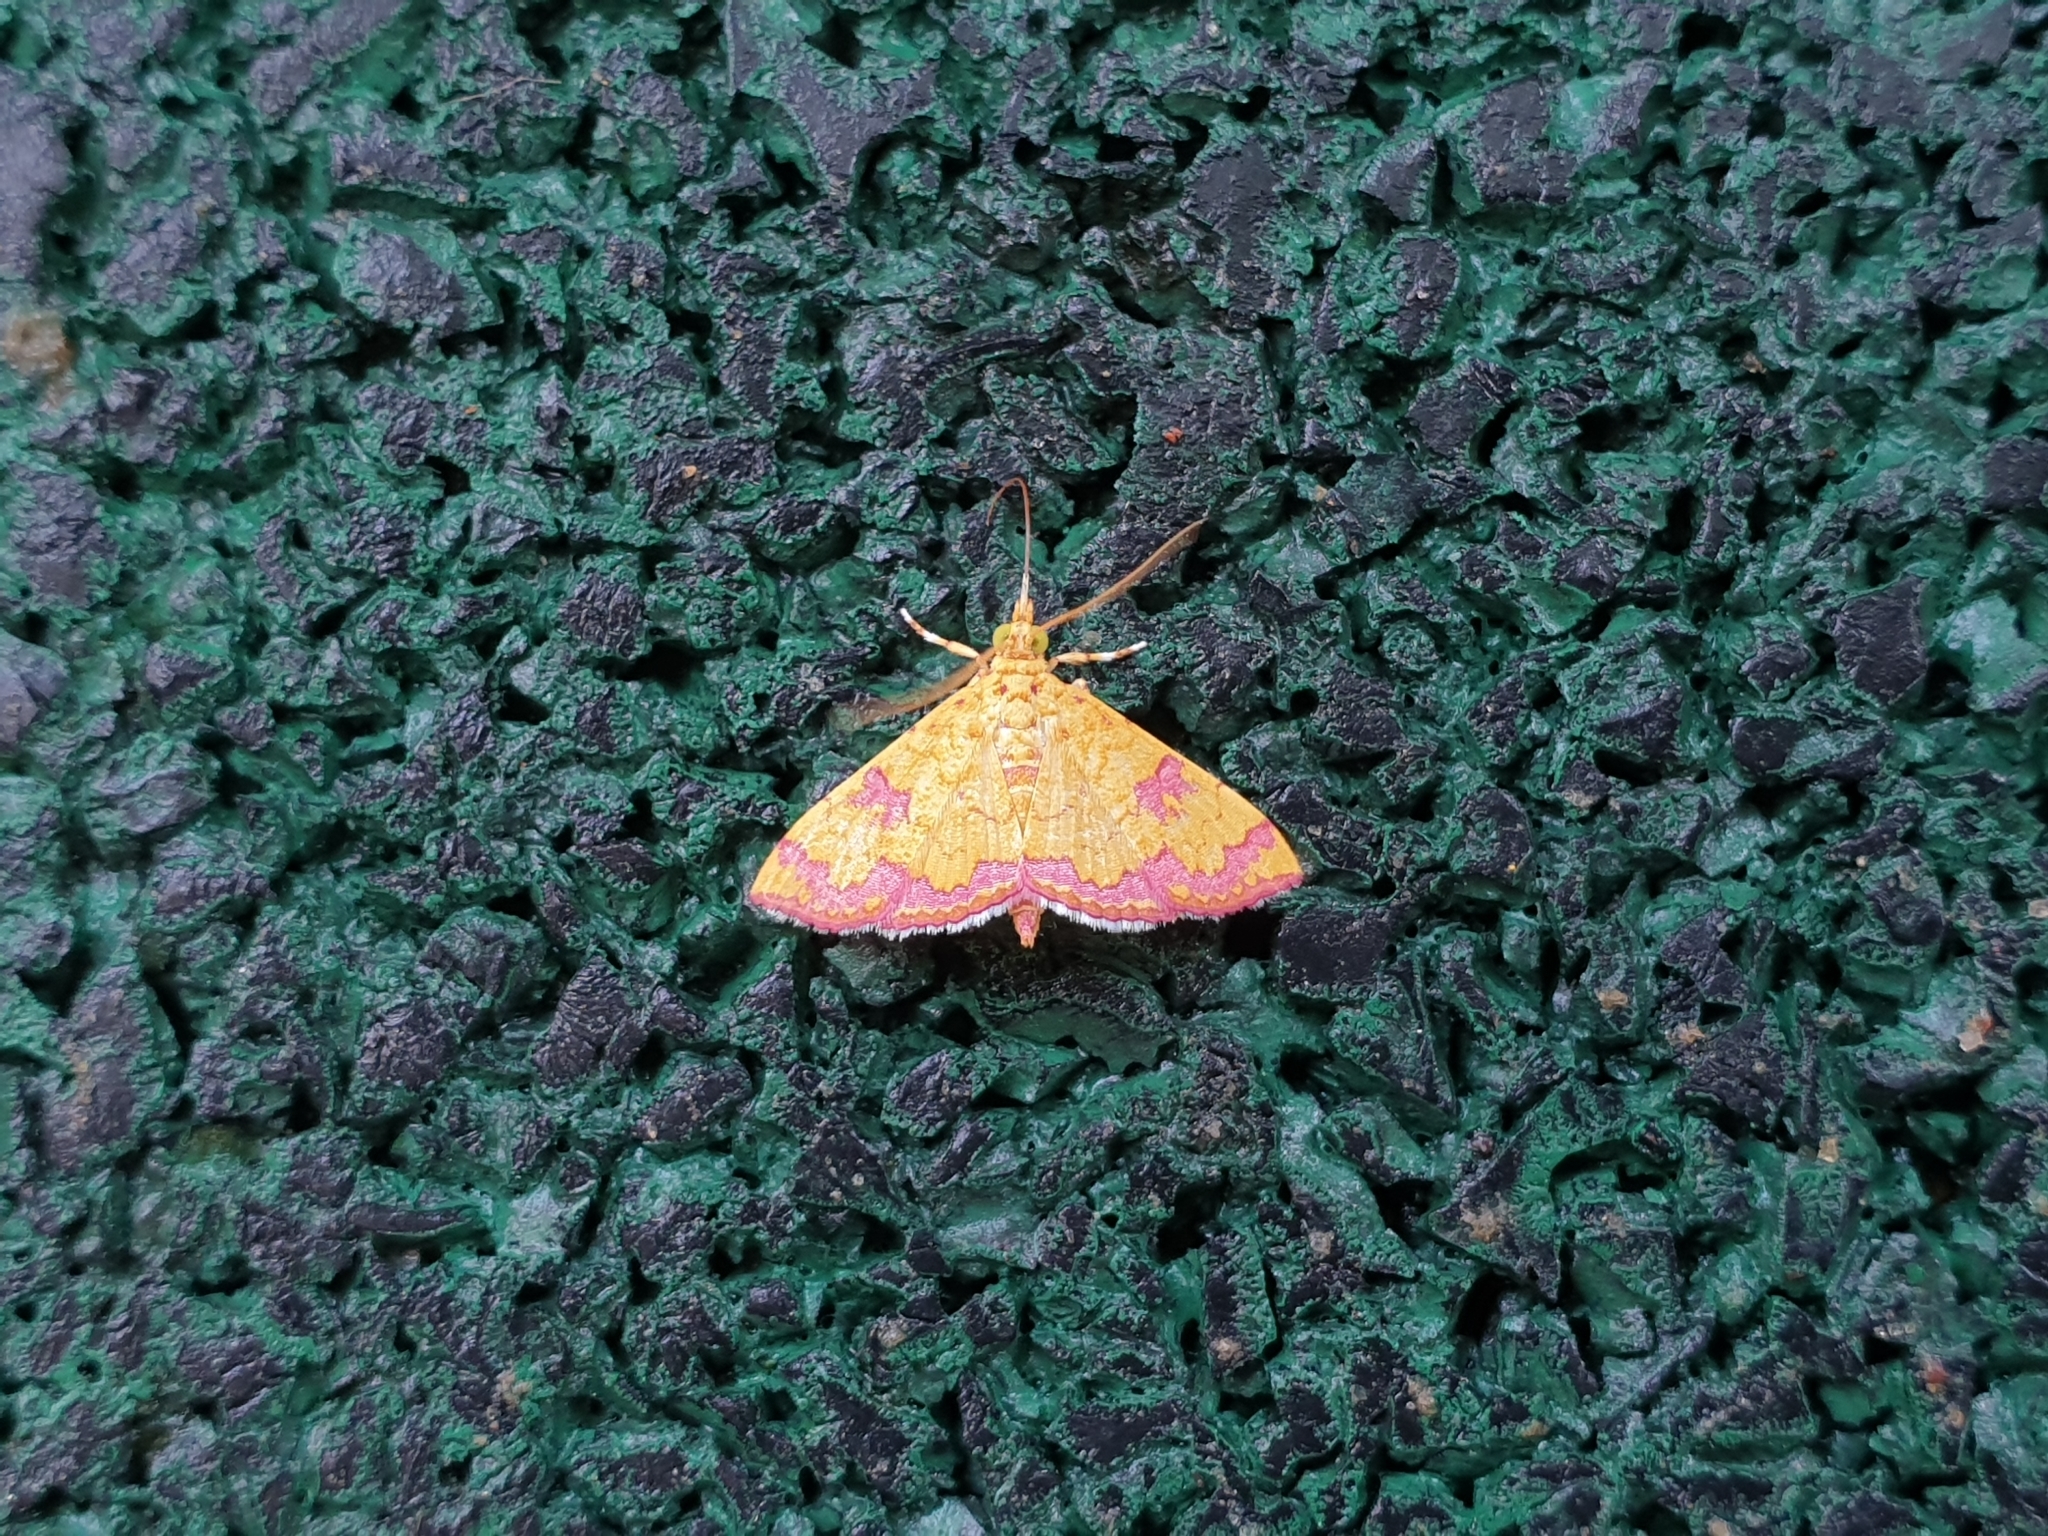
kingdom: Animalia
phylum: Arthropoda
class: Insecta
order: Lepidoptera
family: Crambidae
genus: Isocentris
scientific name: Isocentris filalis
